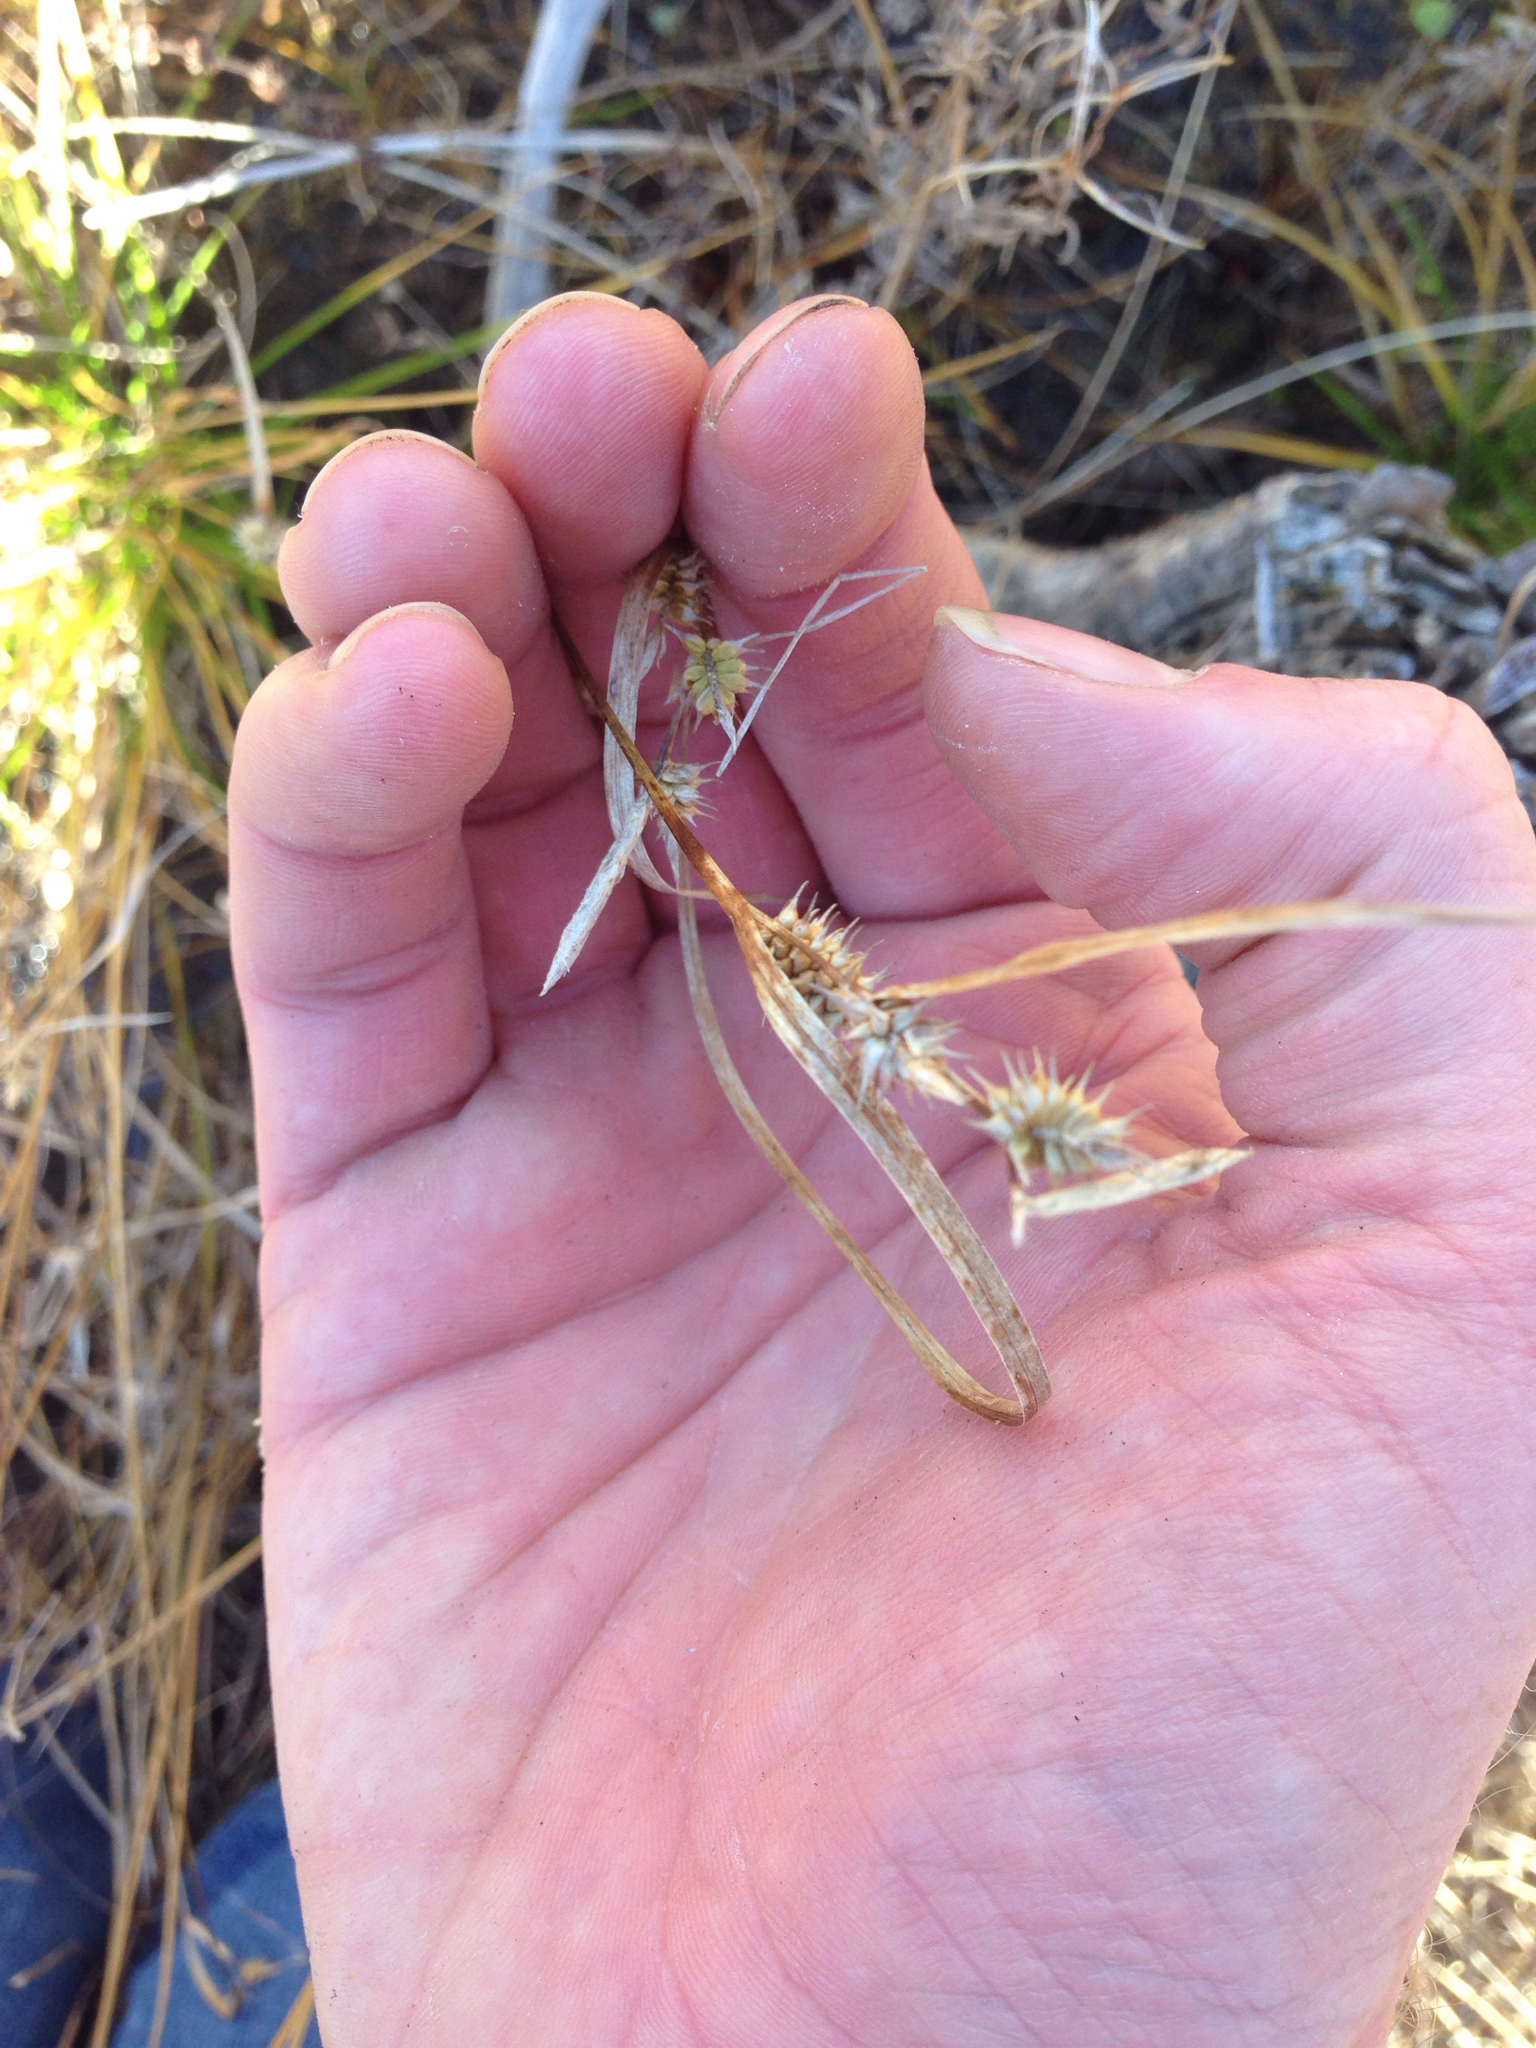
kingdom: Plantae
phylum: Tracheophyta
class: Liliopsida
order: Poales
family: Cyperaceae
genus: Carex
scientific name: Carex hystericina
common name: Bottlebrush sedge
